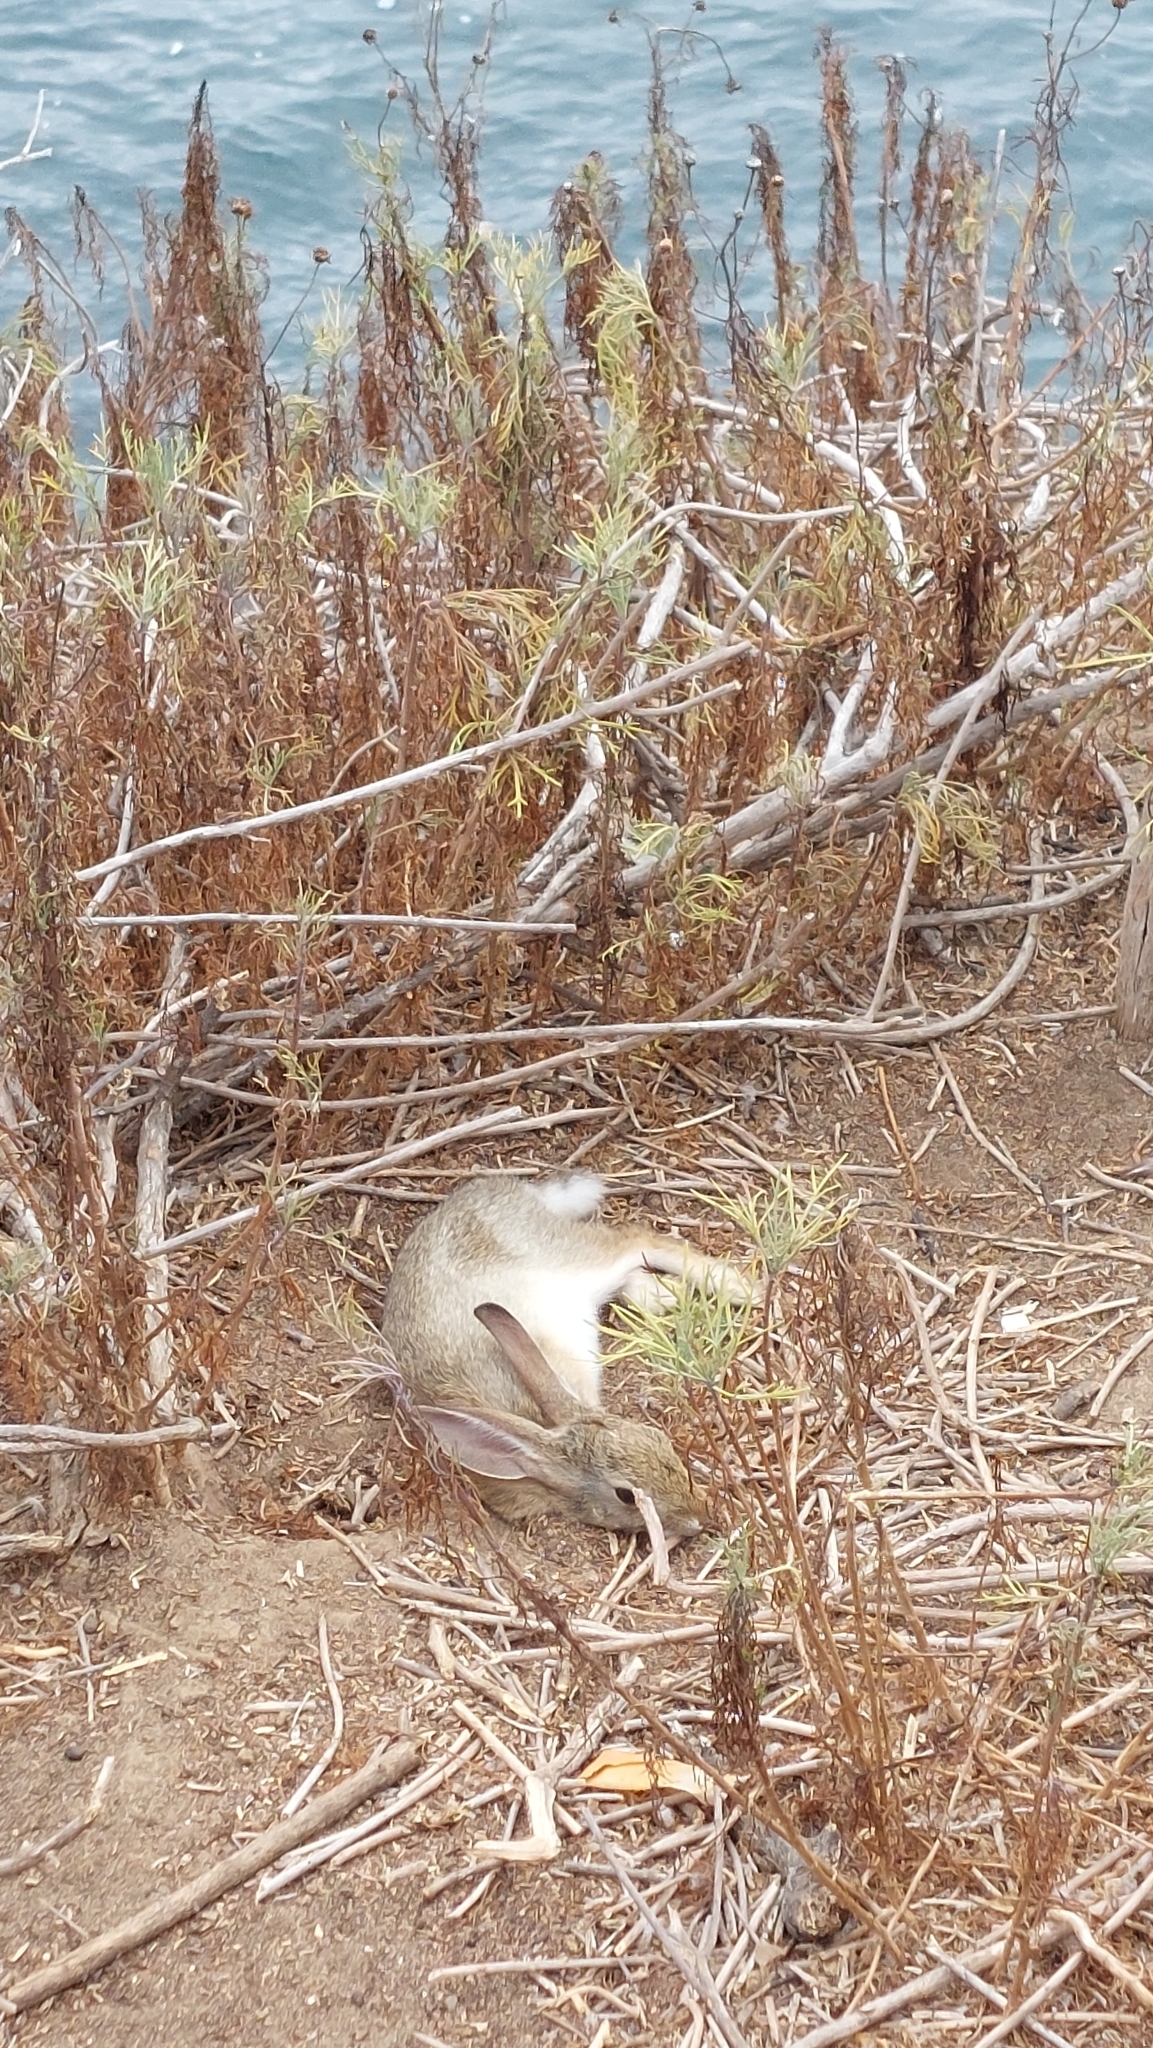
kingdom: Animalia
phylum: Chordata
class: Mammalia
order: Lagomorpha
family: Leporidae
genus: Sylvilagus
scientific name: Sylvilagus audubonii
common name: Desert cottontail
